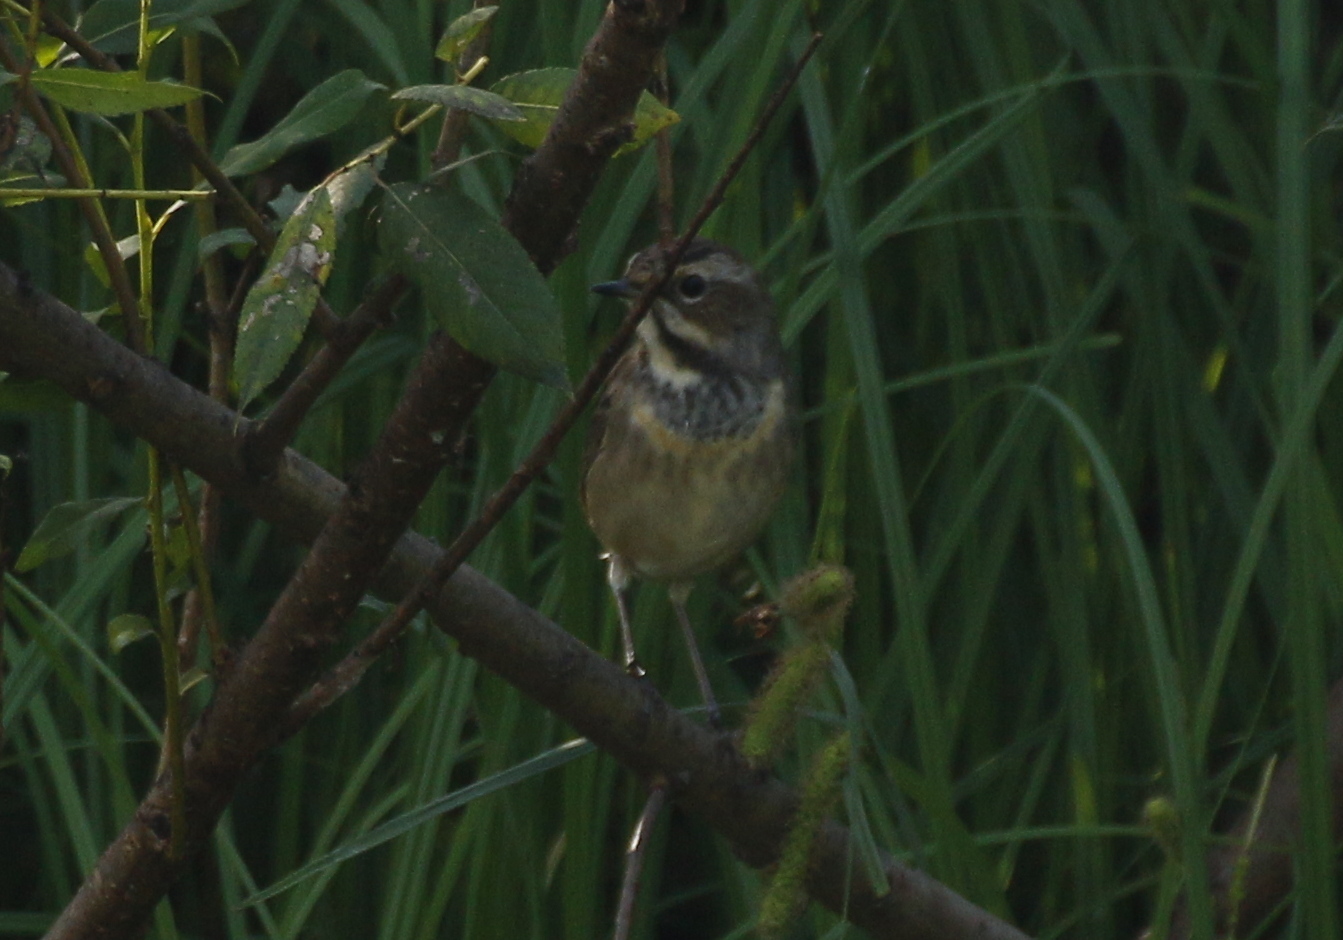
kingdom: Animalia
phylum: Chordata
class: Aves
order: Passeriformes
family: Muscicapidae
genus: Luscinia
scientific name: Luscinia svecica
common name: Bluethroat
